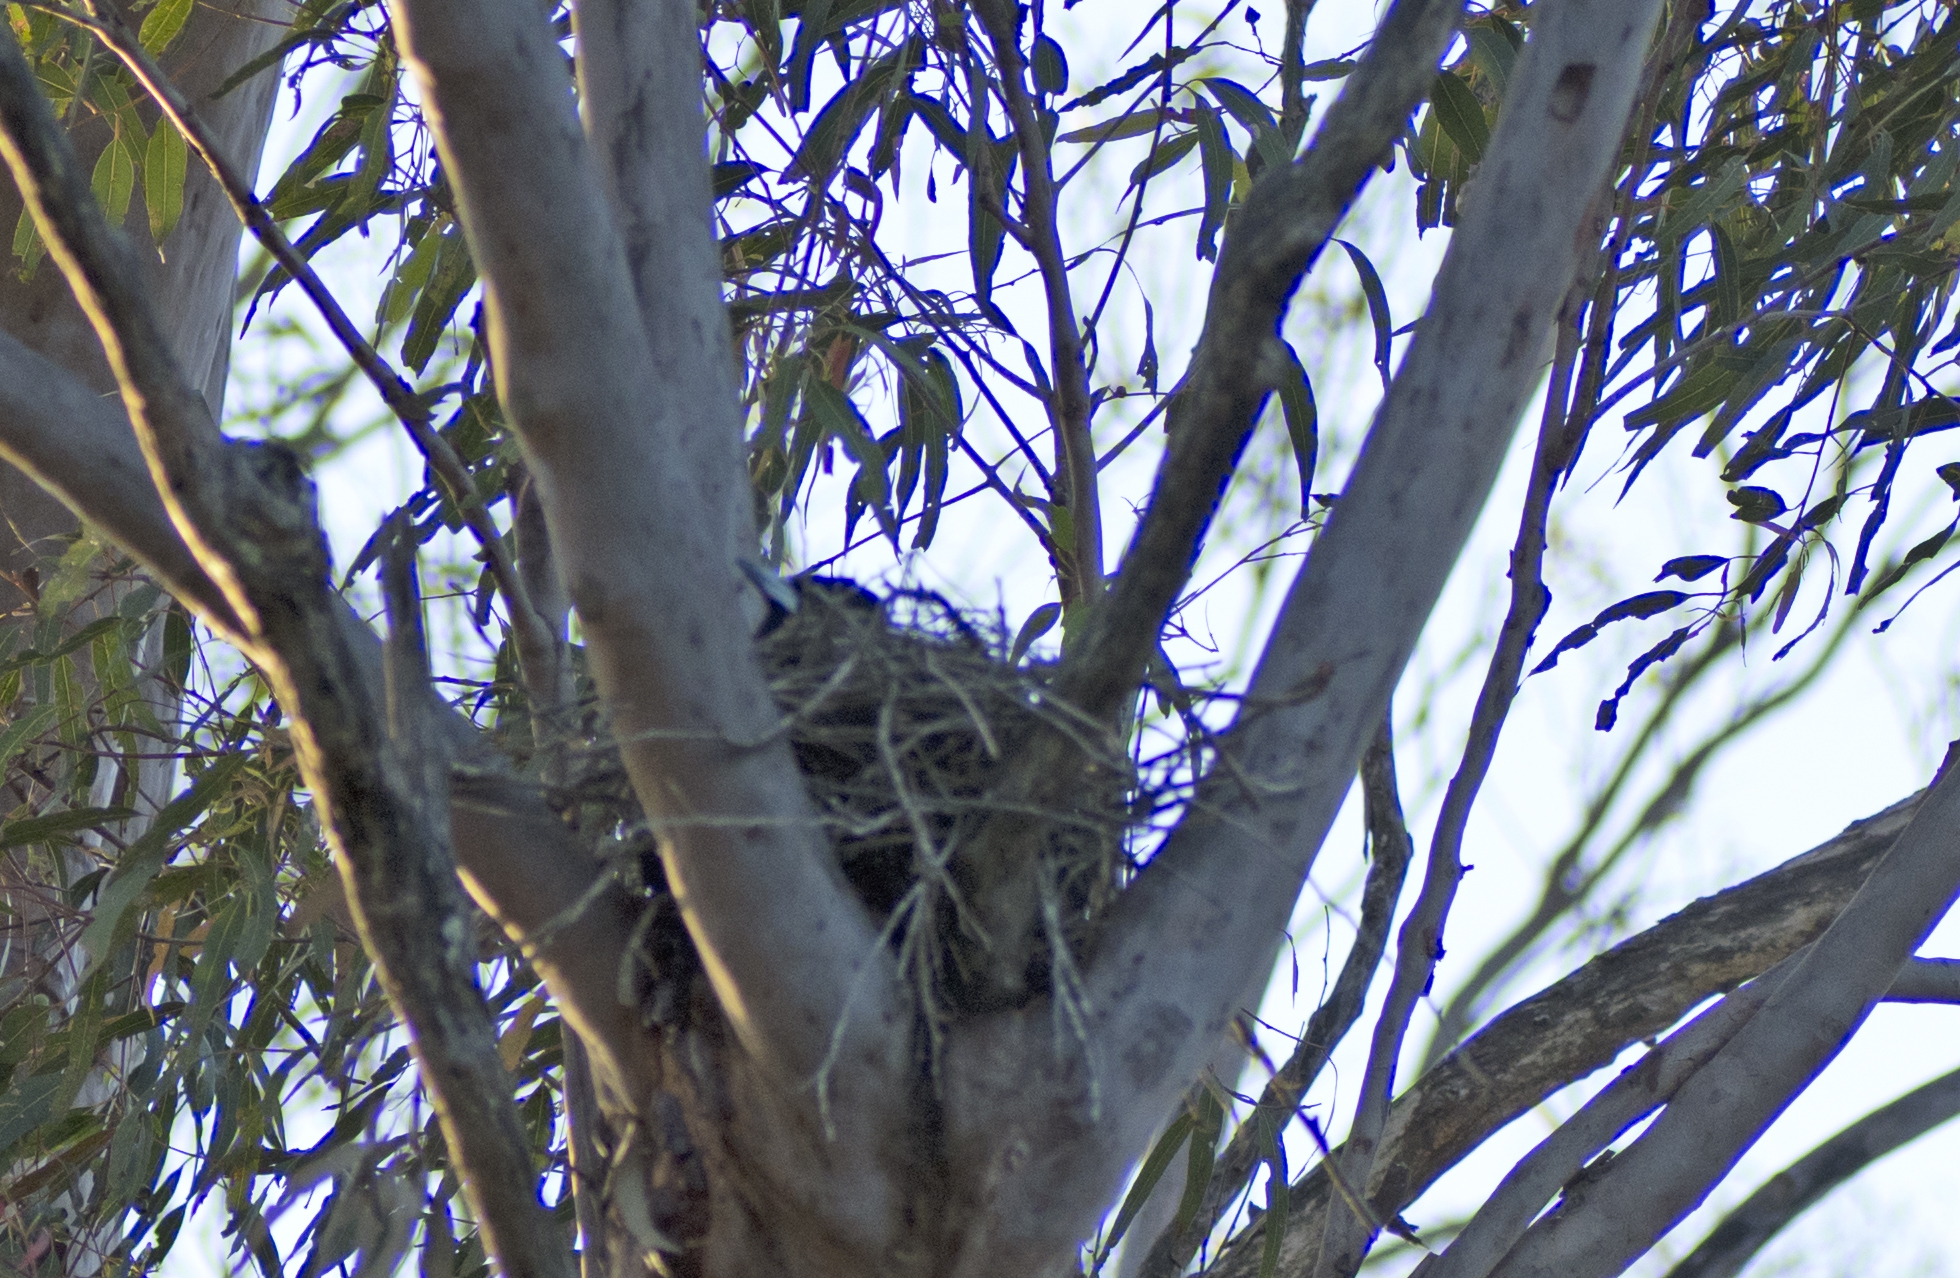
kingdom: Animalia
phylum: Chordata
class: Aves
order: Passeriformes
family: Cracticidae
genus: Cracticus
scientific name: Cracticus nigrogularis
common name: Pied butcherbird
